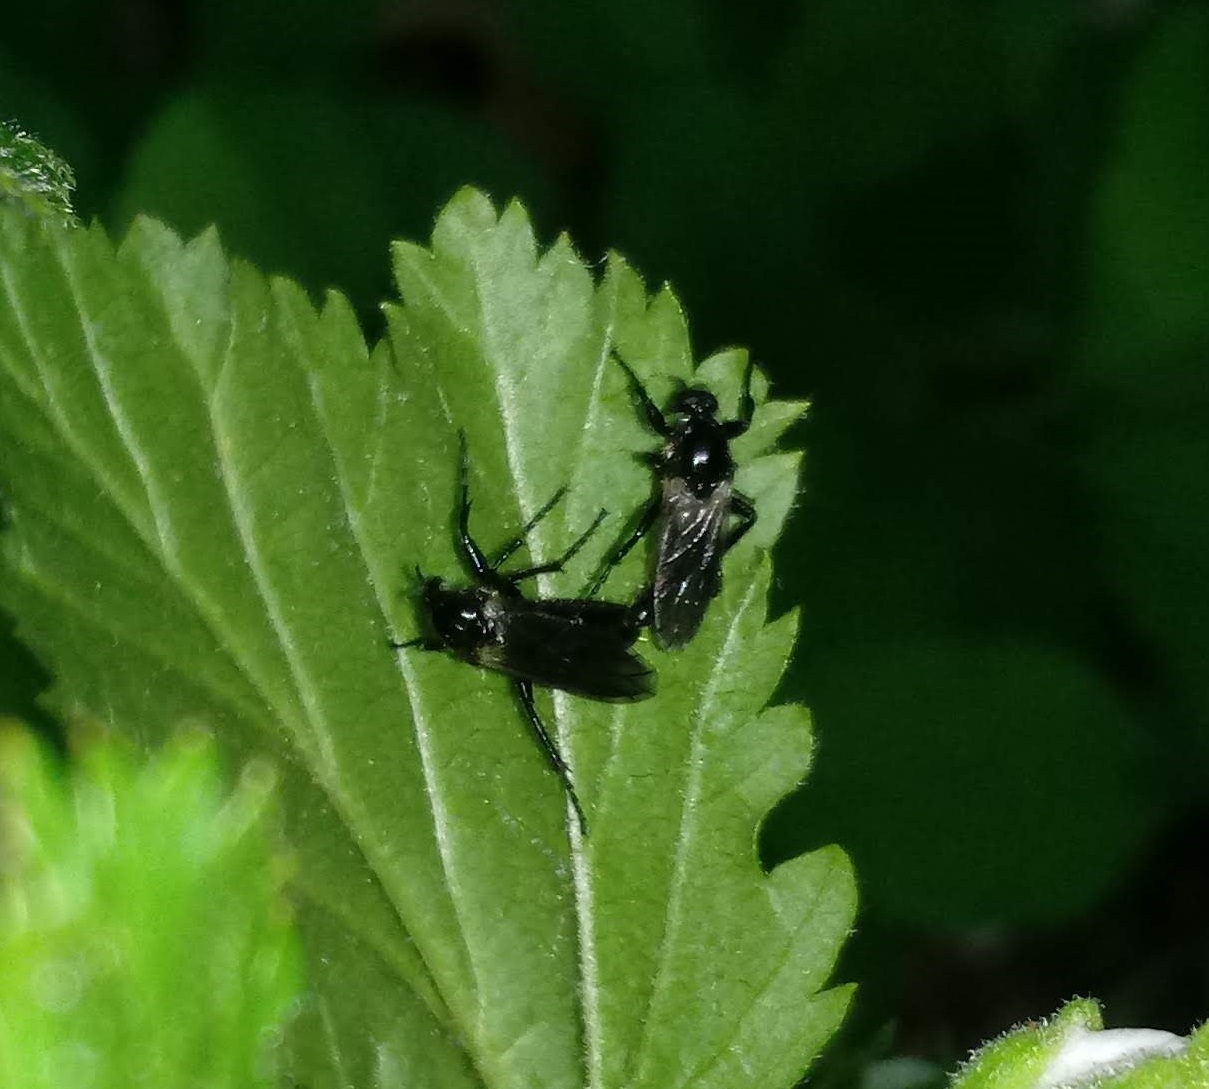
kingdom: Animalia
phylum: Arthropoda
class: Insecta
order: Diptera
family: Bibionidae
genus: Bibio
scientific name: Bibio albipennis
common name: White-winged march fly
